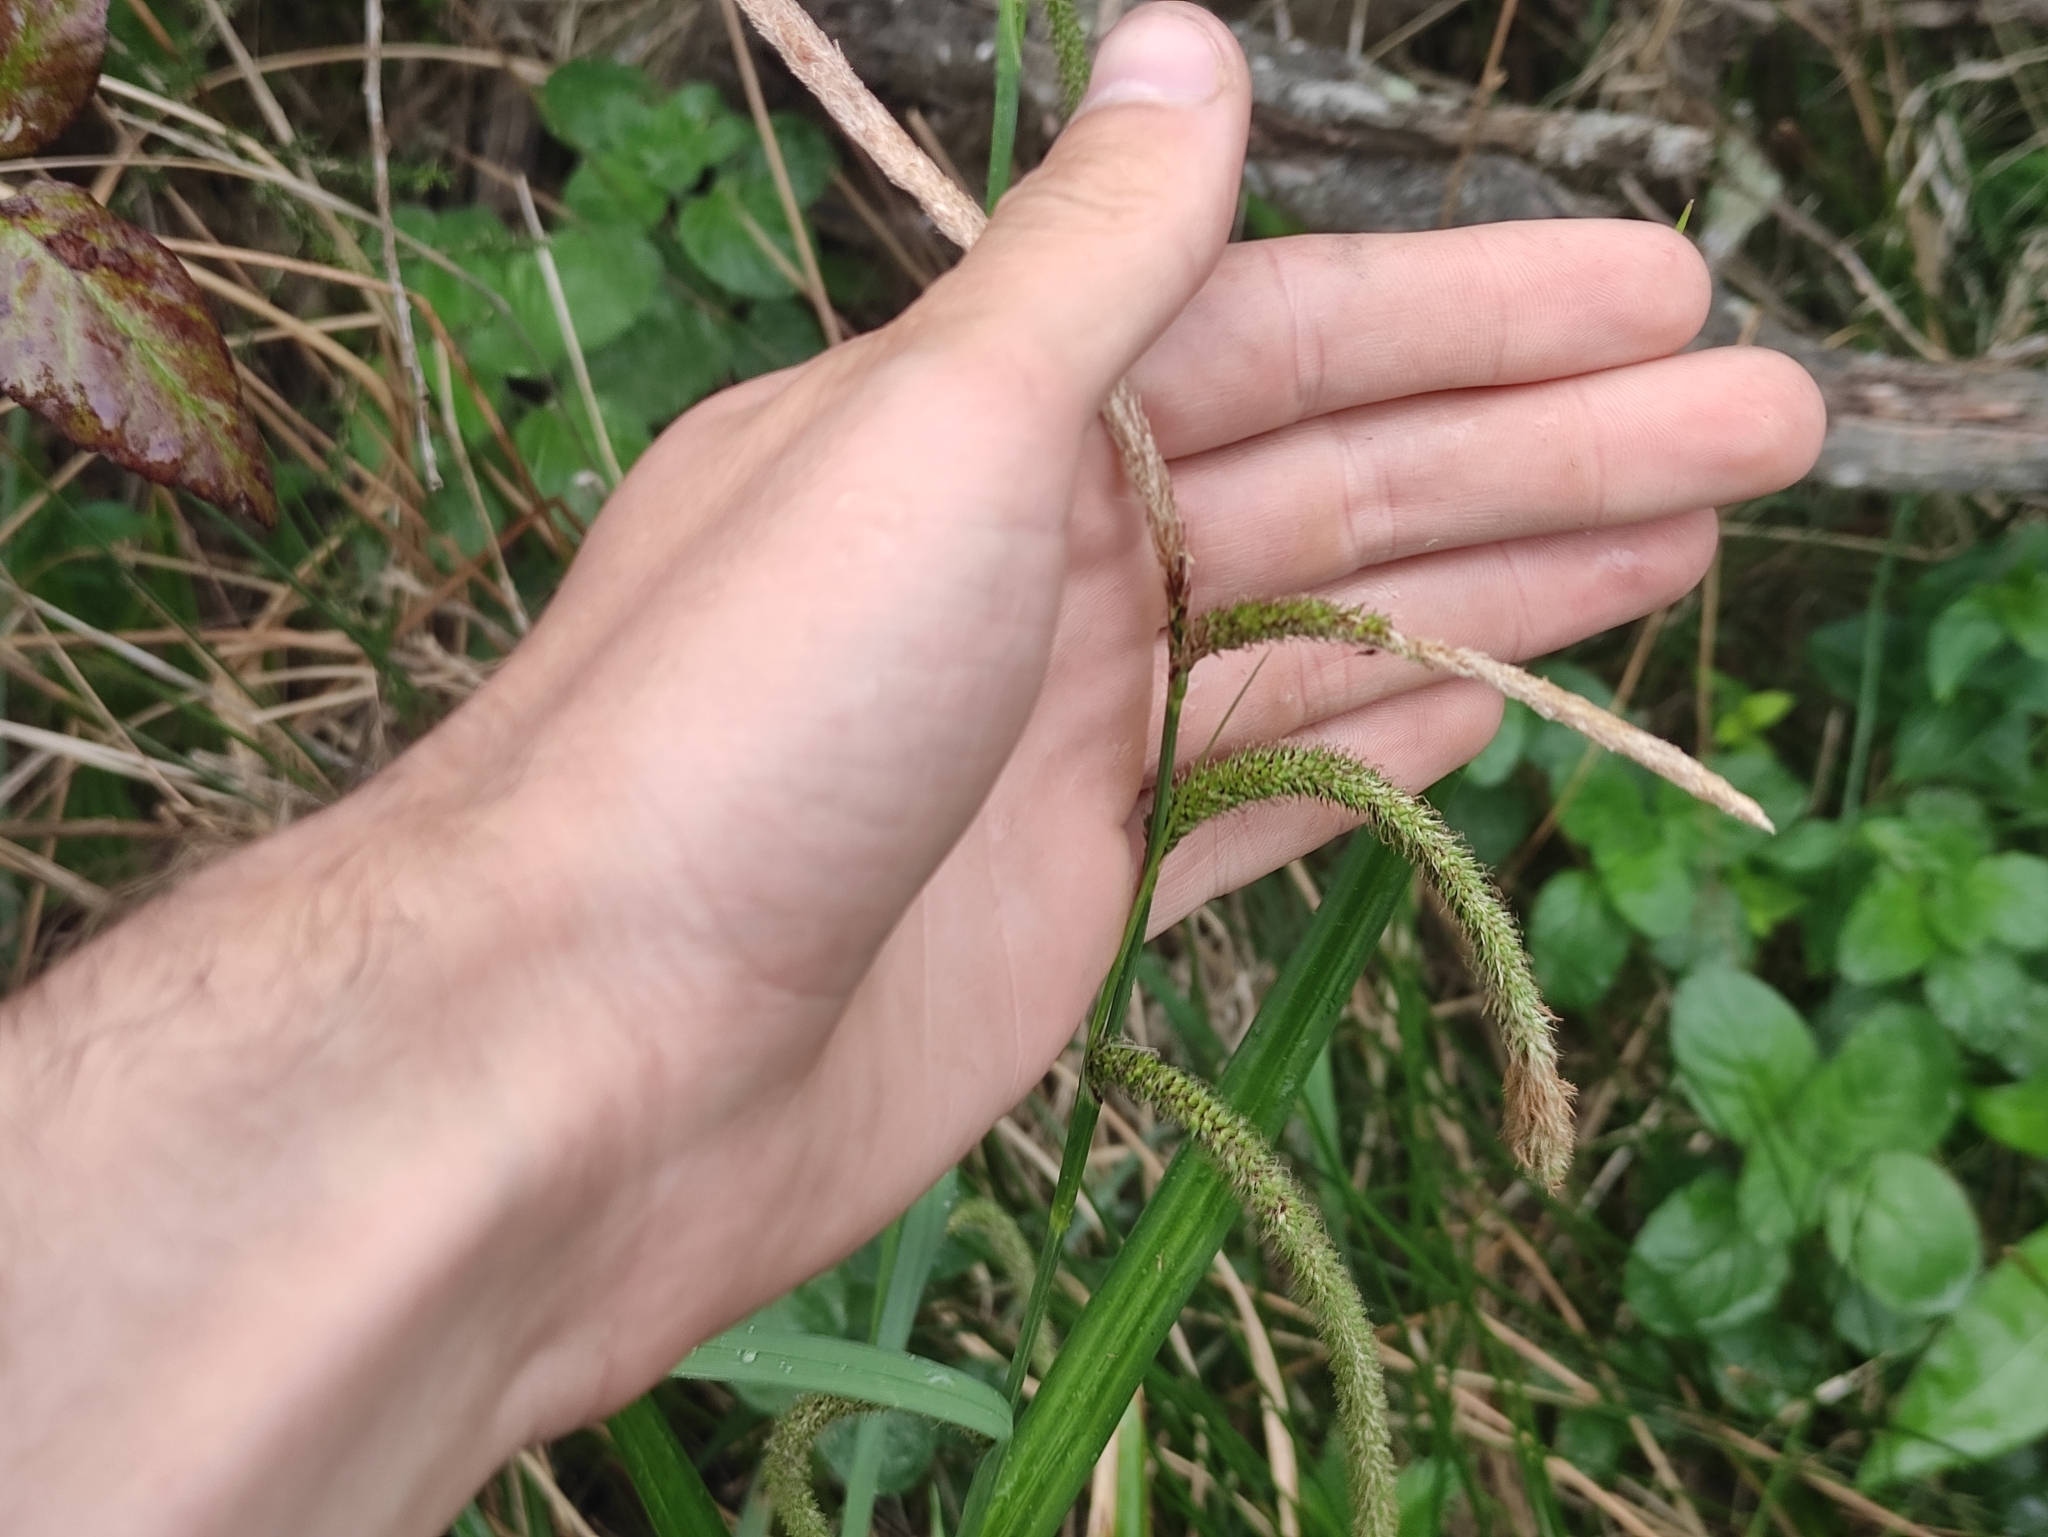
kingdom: Plantae
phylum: Tracheophyta
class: Liliopsida
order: Poales
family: Cyperaceae
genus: Carex
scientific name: Carex pendula
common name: Pendulous sedge
